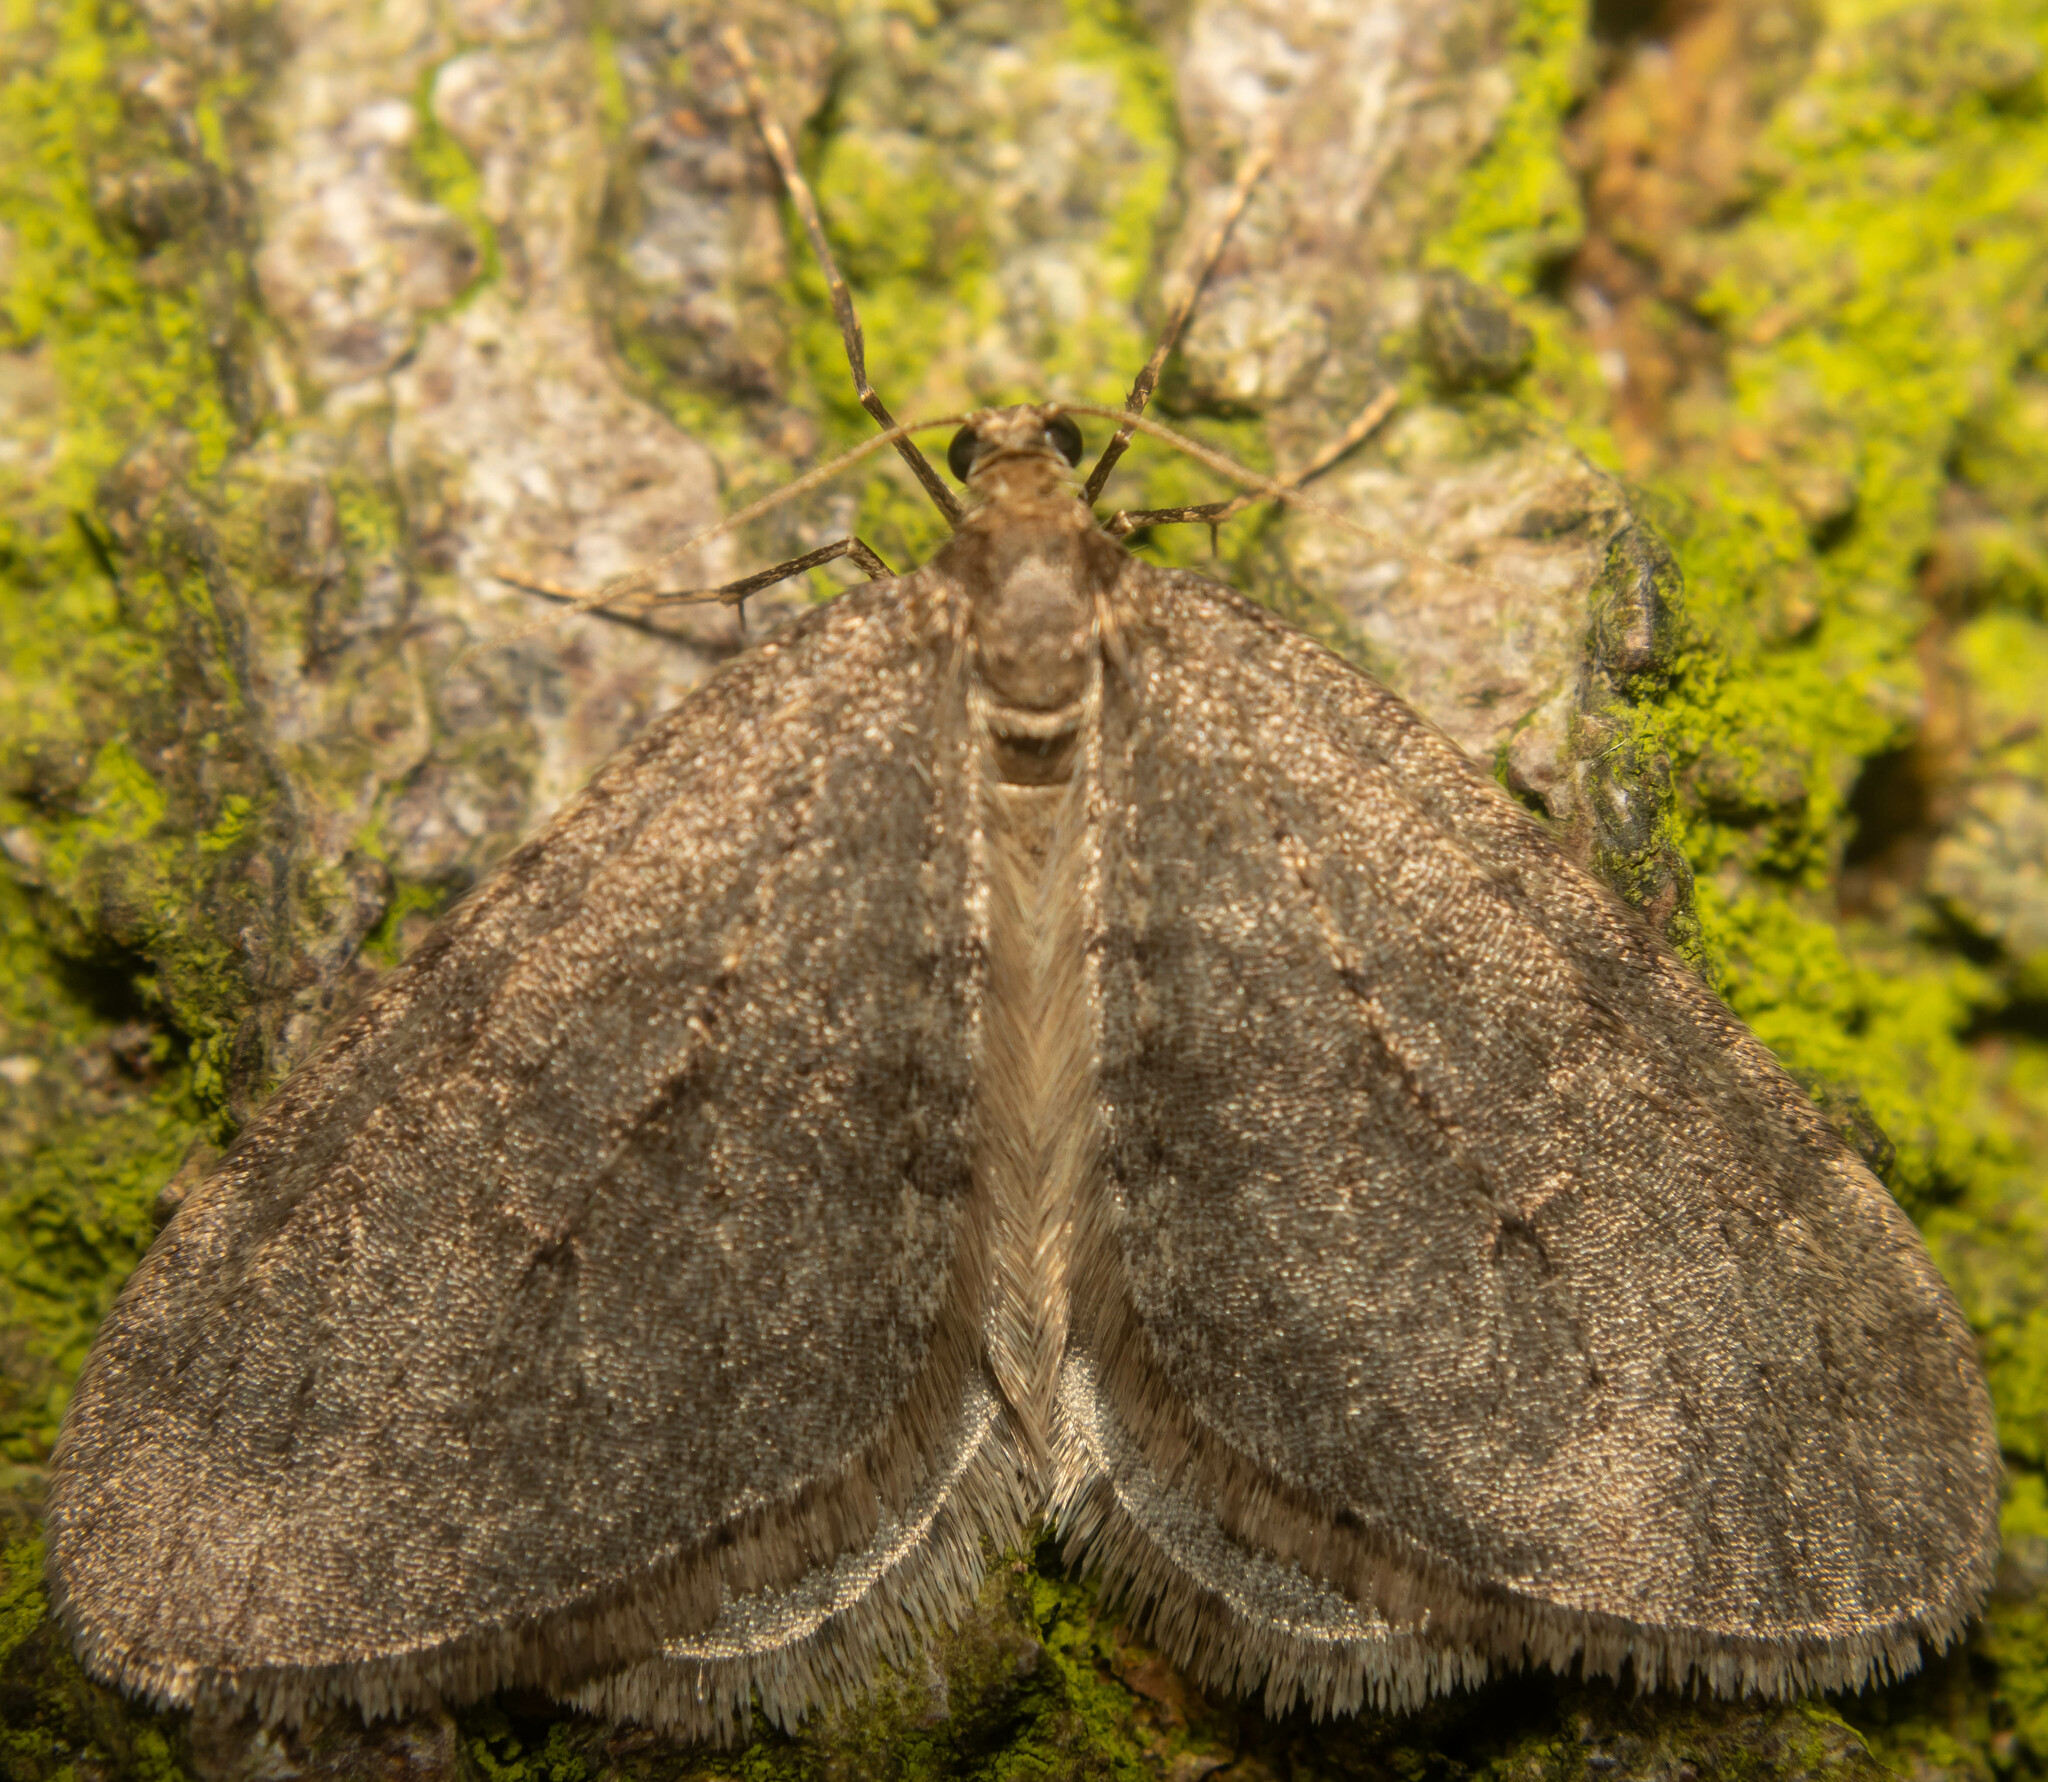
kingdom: Animalia
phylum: Arthropoda
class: Insecta
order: Lepidoptera
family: Geometridae
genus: Operophtera
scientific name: Operophtera brumata
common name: Winter moth
